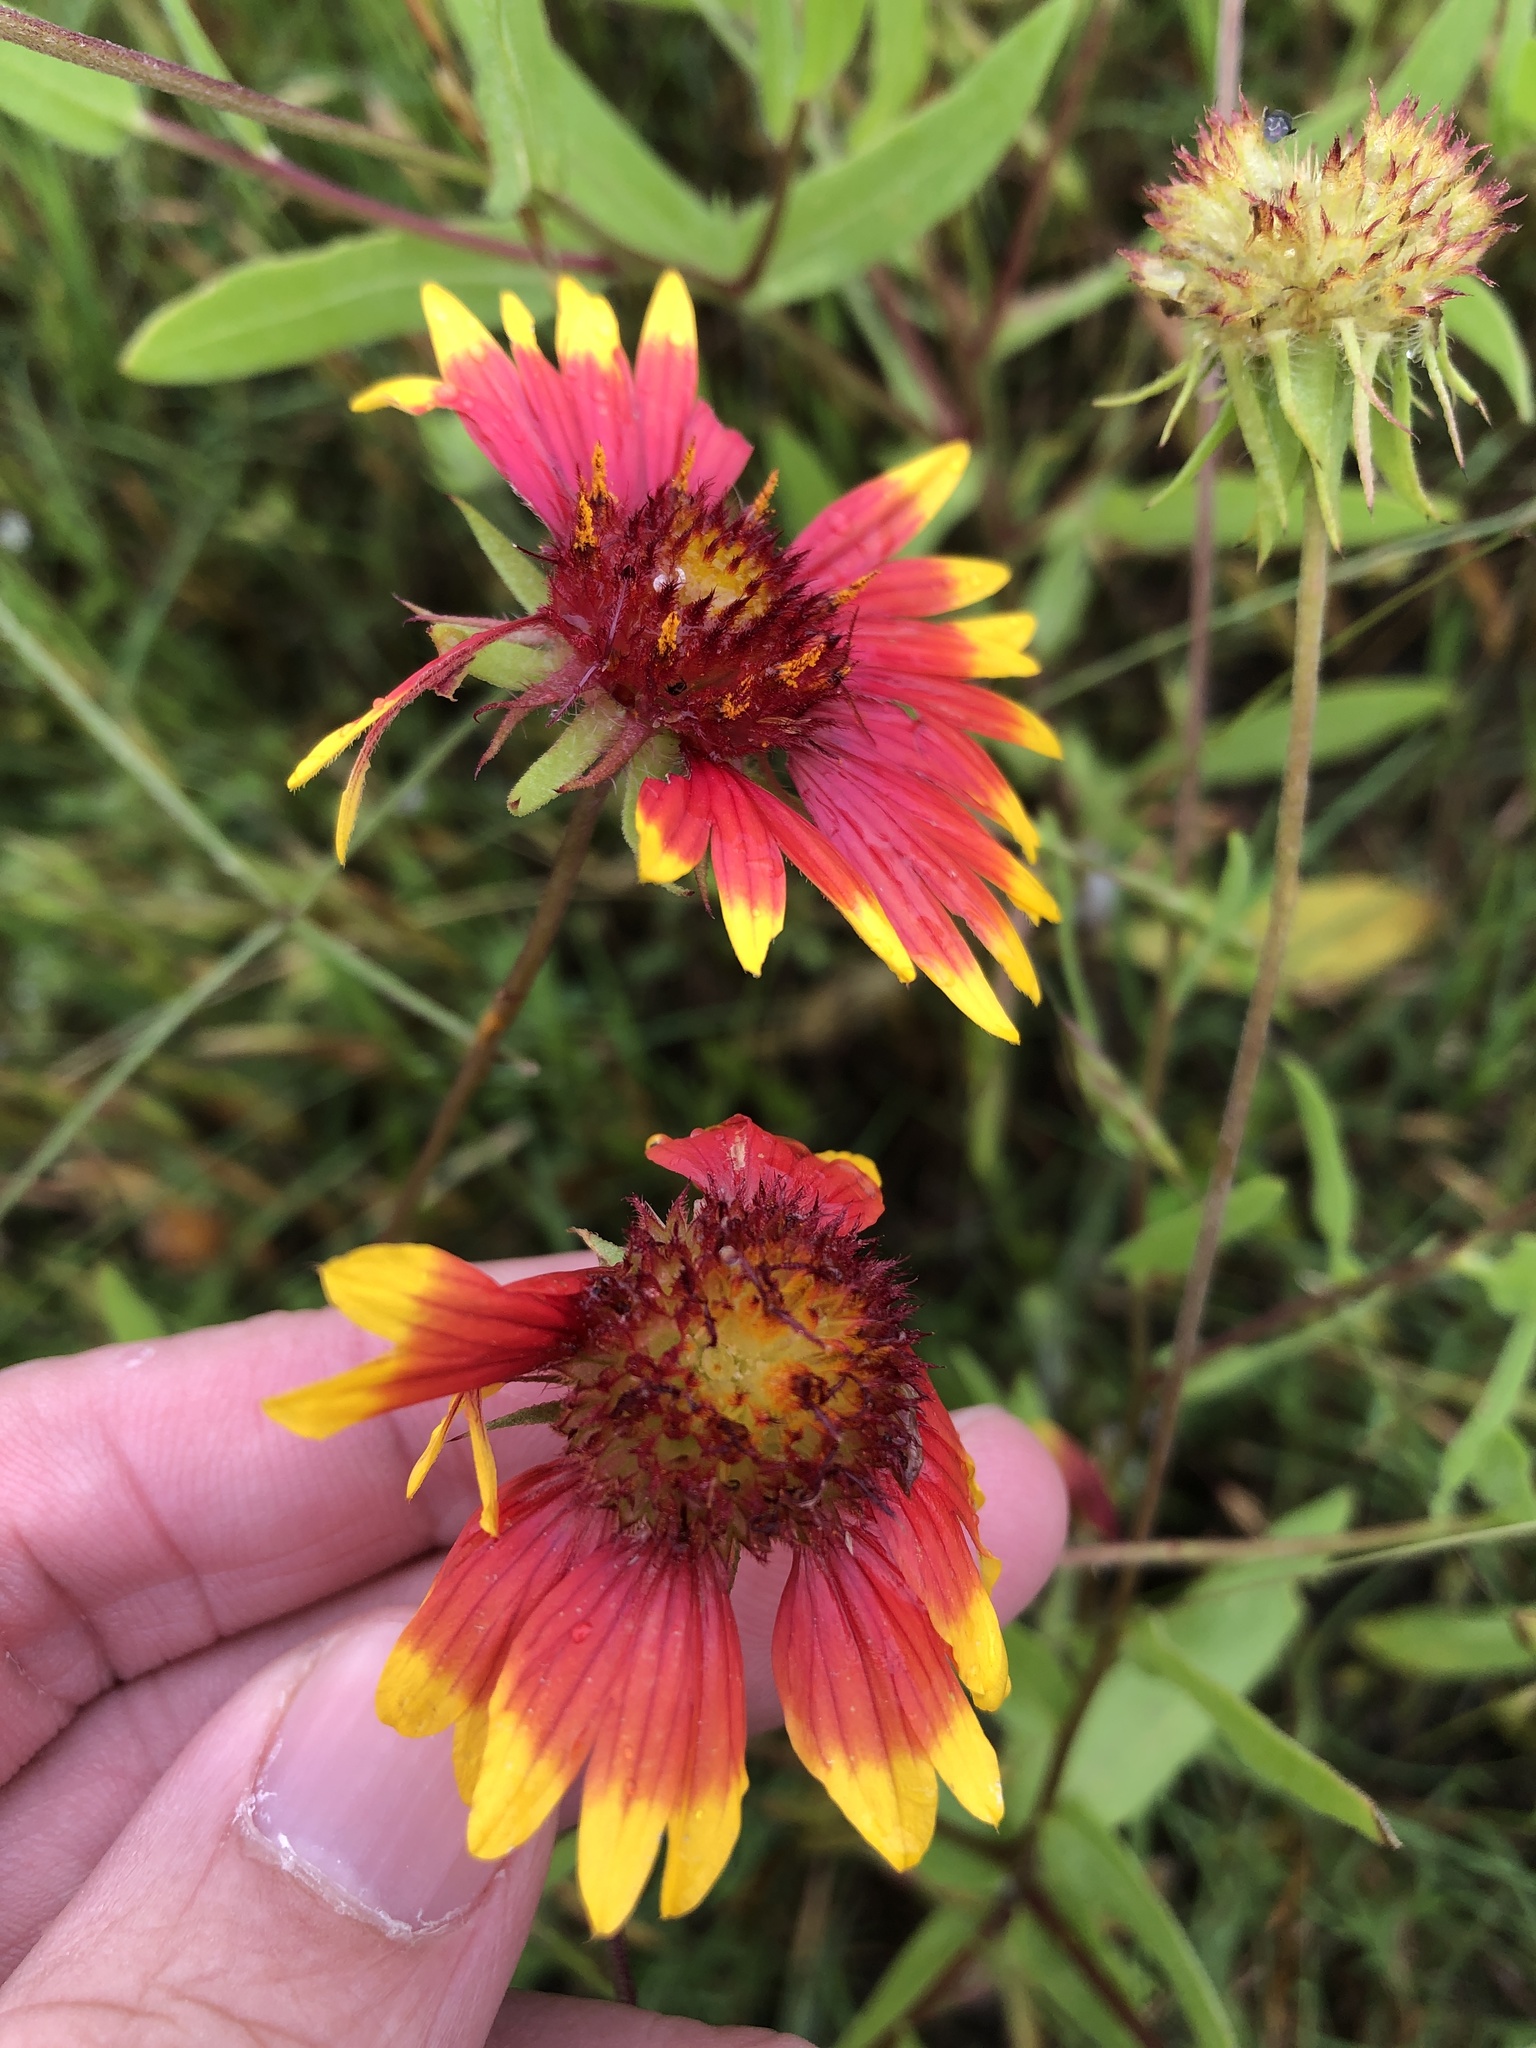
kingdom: Plantae
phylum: Tracheophyta
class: Magnoliopsida
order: Asterales
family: Asteraceae
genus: Gaillardia
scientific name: Gaillardia pulchella
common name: Firewheel
